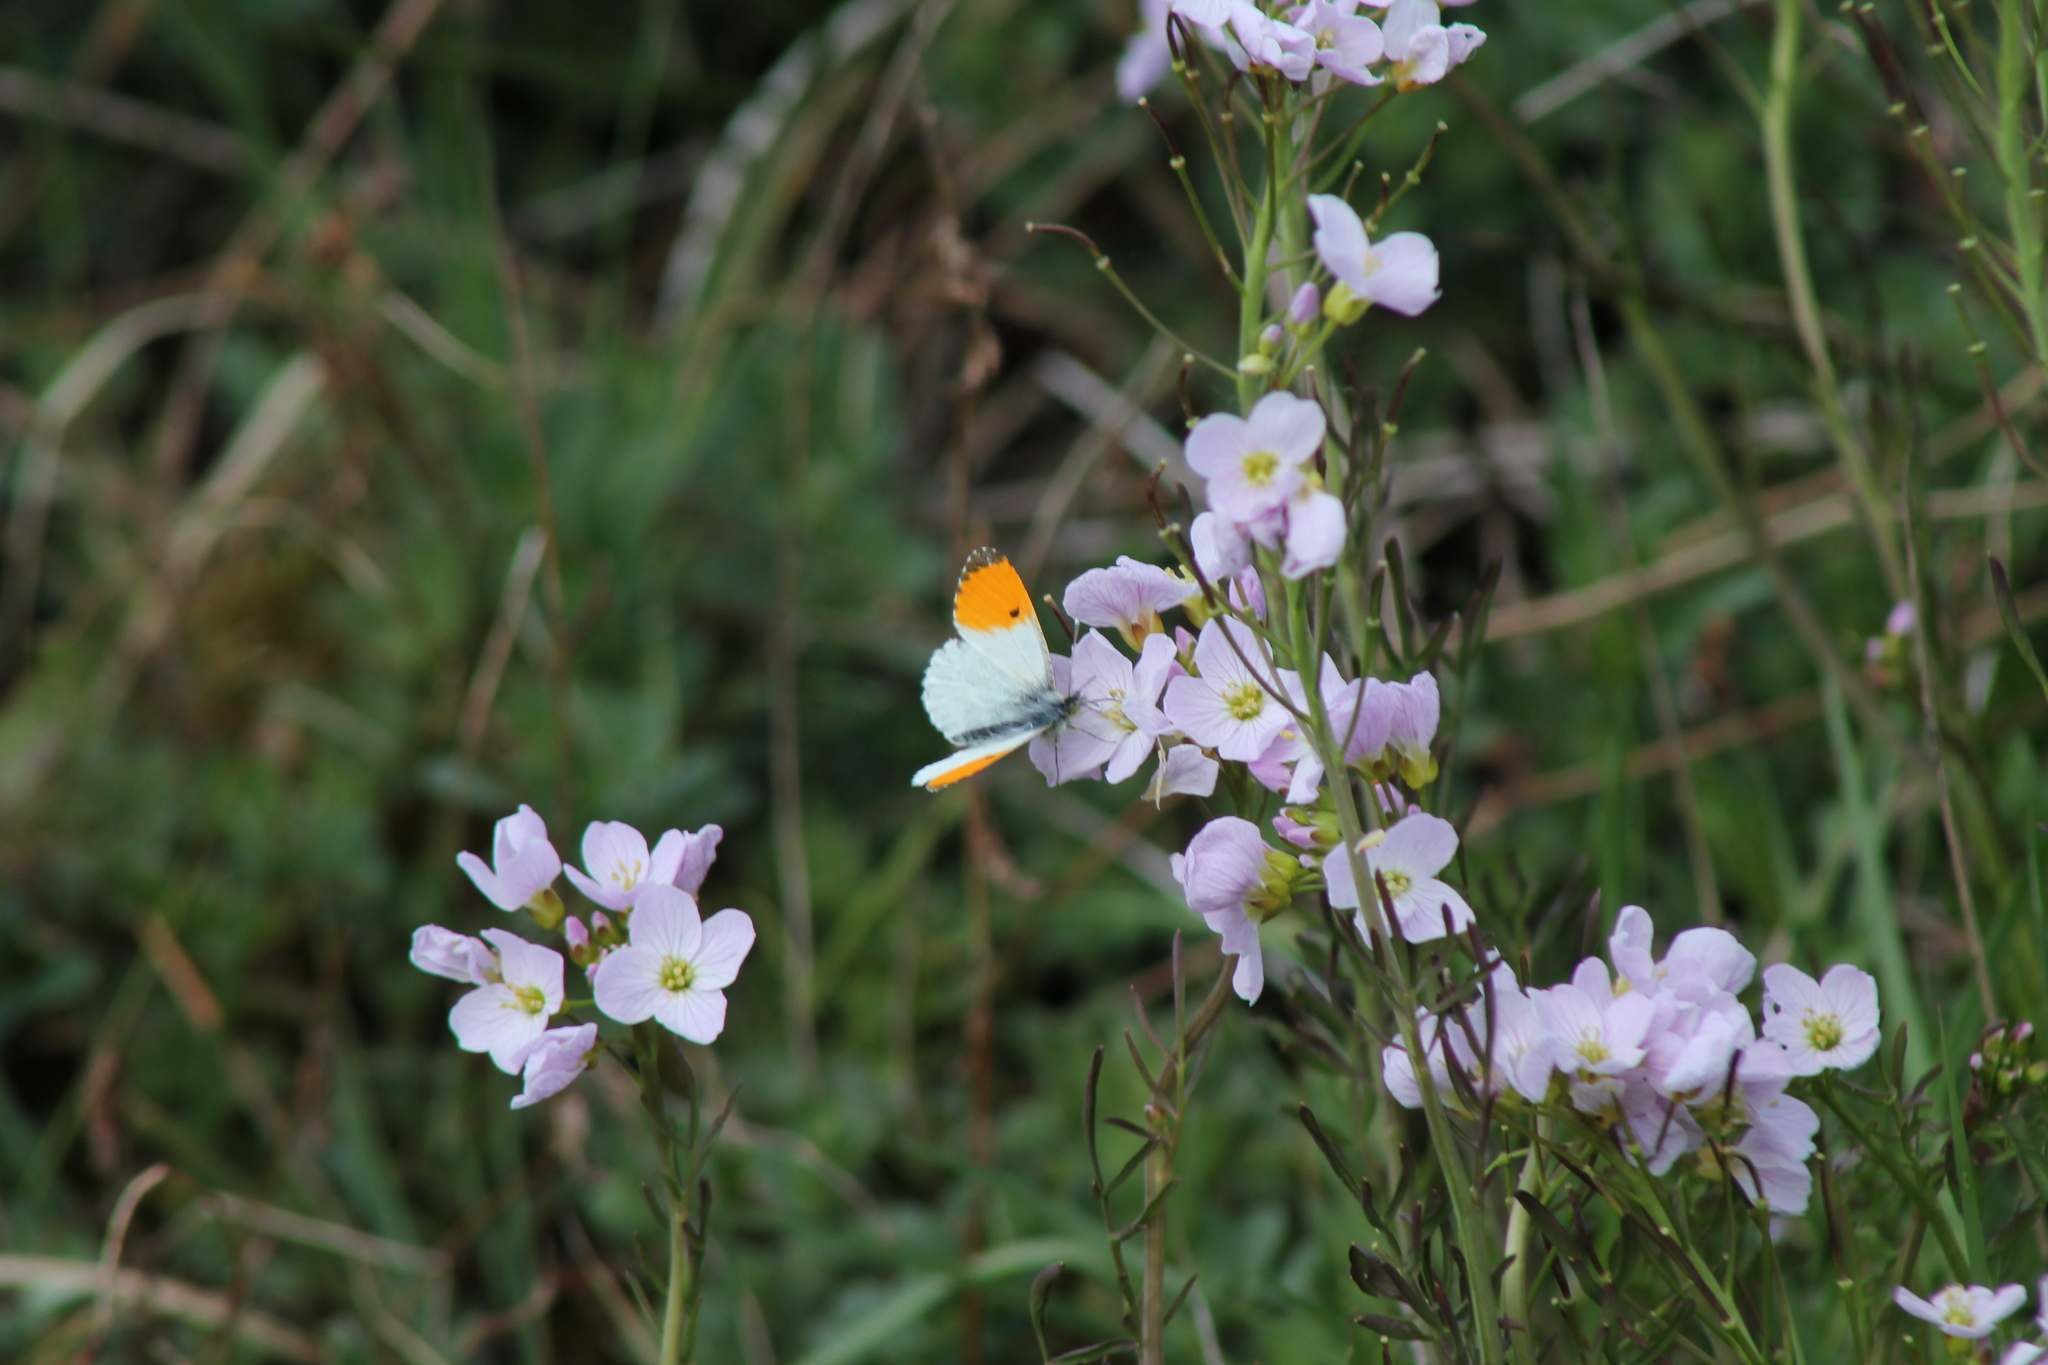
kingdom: Animalia
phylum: Arthropoda
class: Insecta
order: Lepidoptera
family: Pieridae
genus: Anthocharis
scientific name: Anthocharis cardamines
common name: Orange-tip
